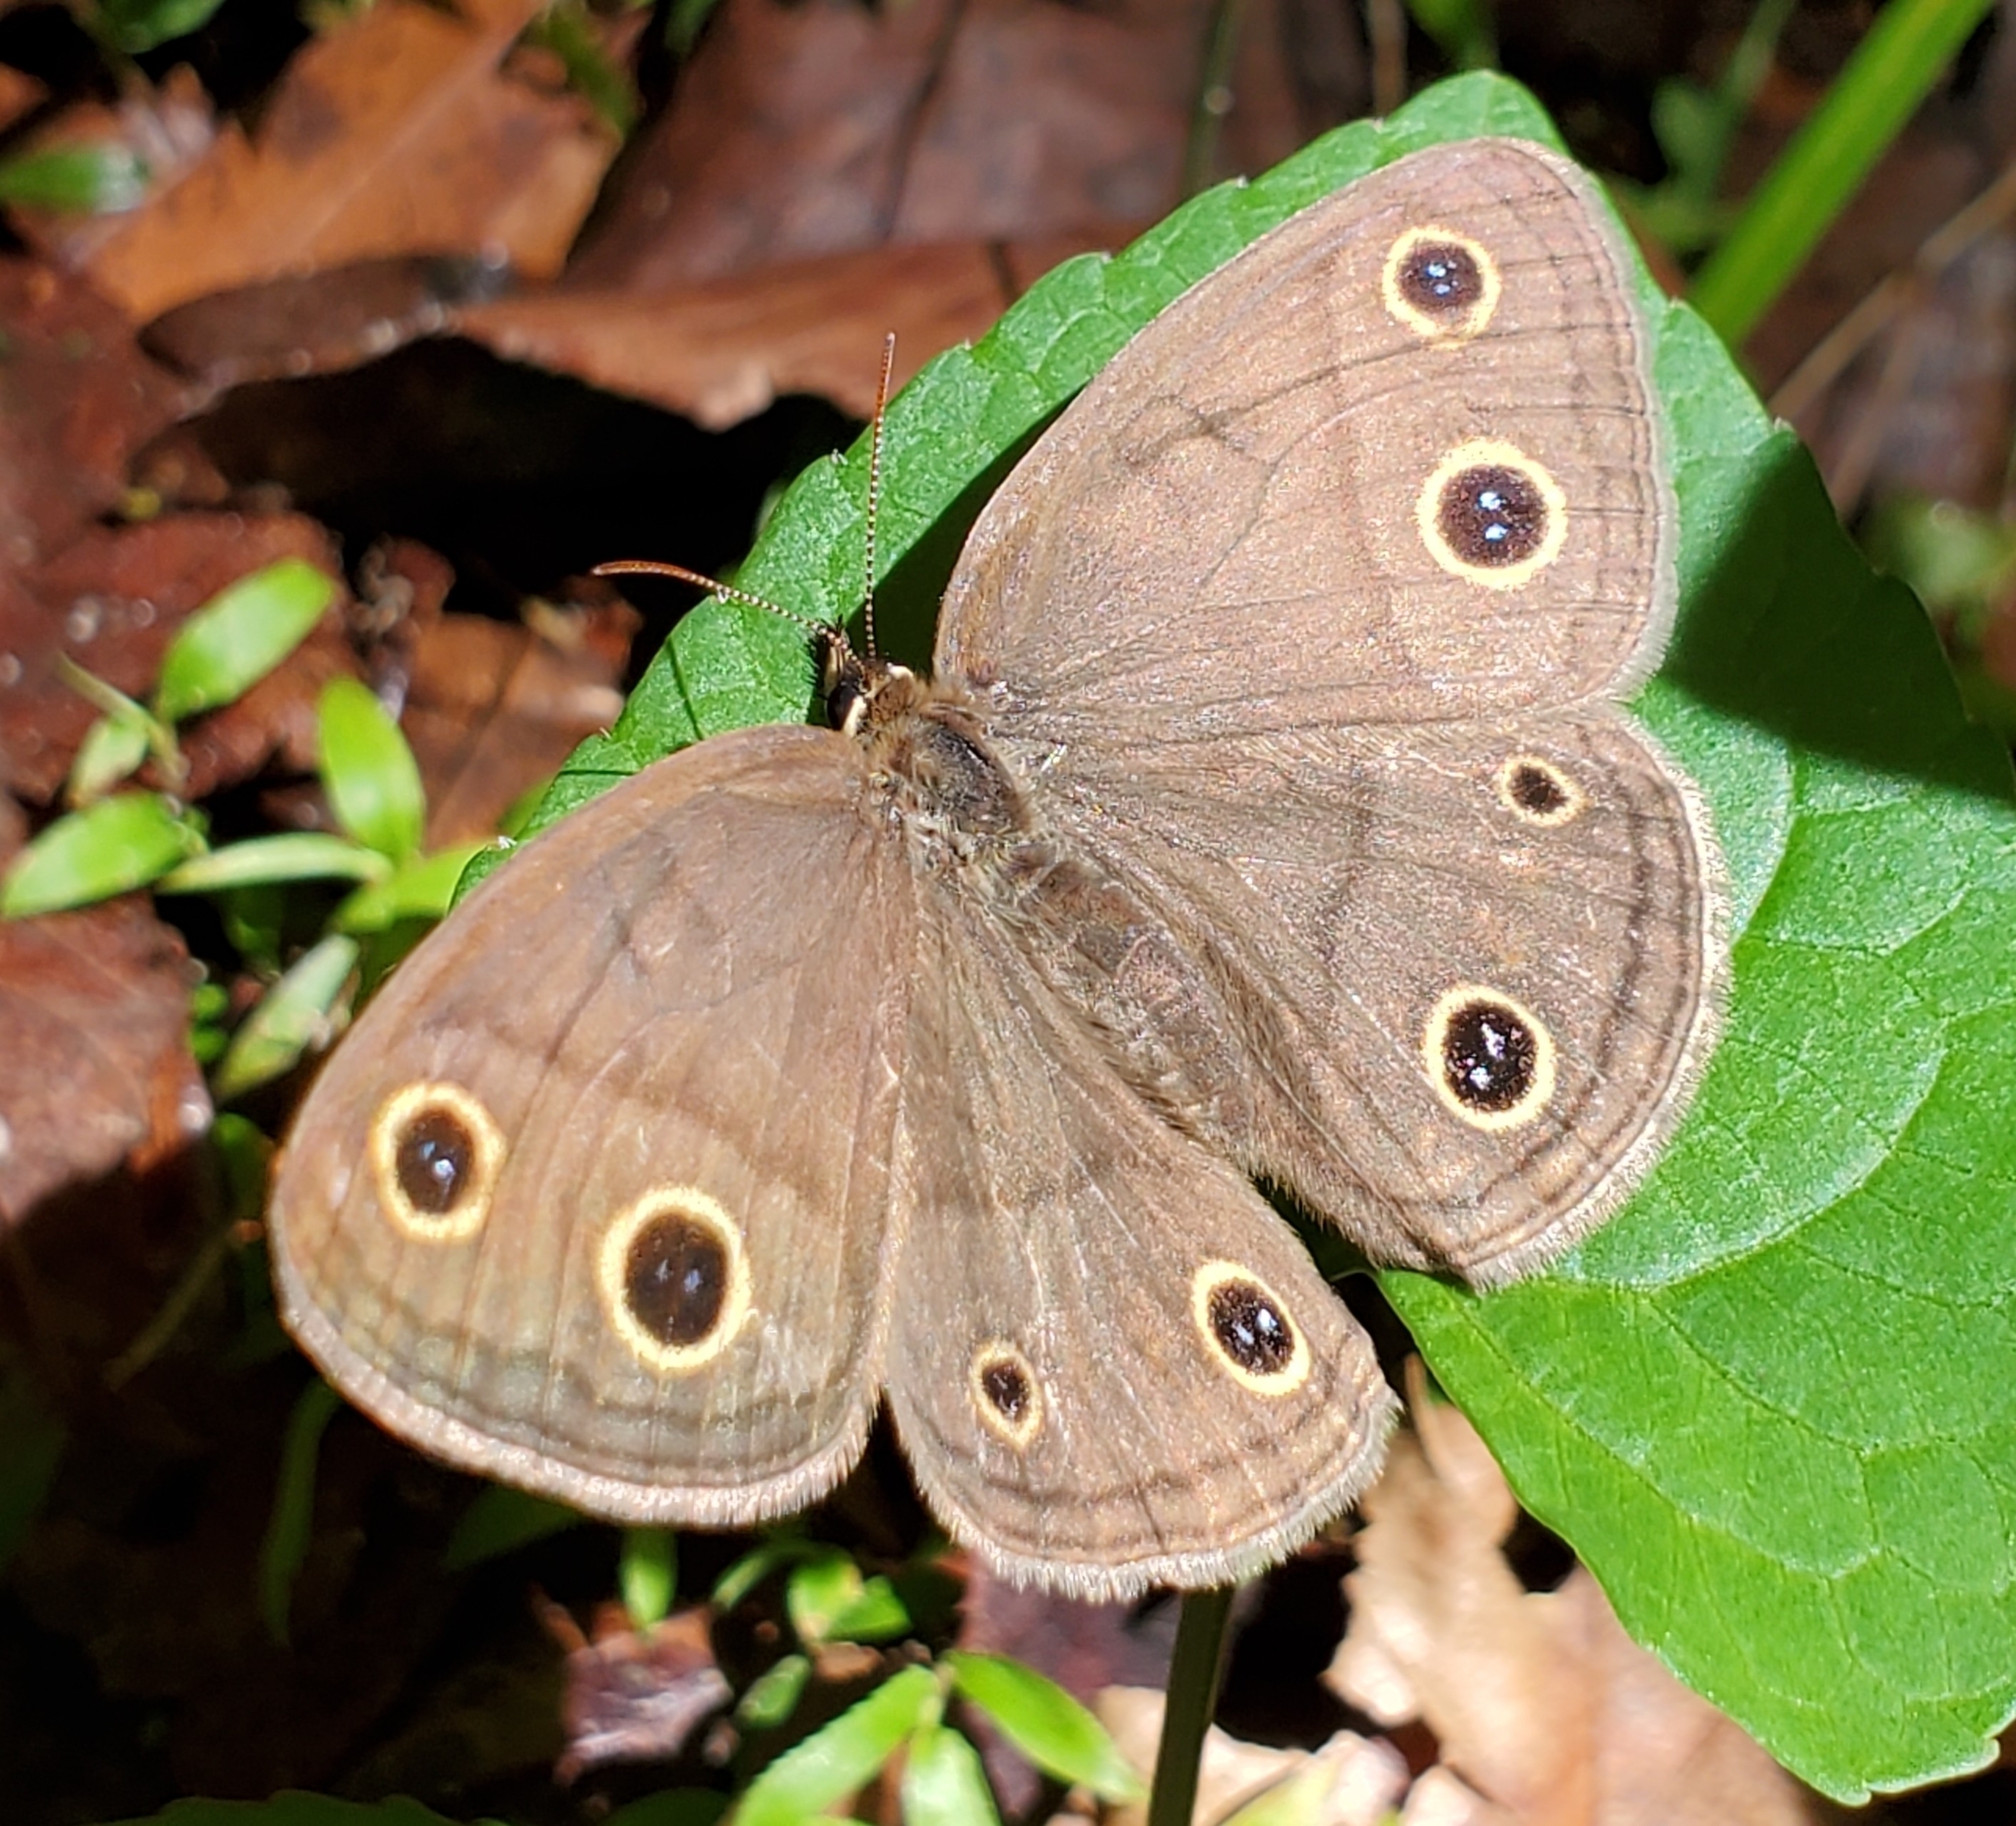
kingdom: Animalia
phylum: Arthropoda
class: Insecta
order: Lepidoptera
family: Nymphalidae
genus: Euptychia
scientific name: Euptychia cymela
